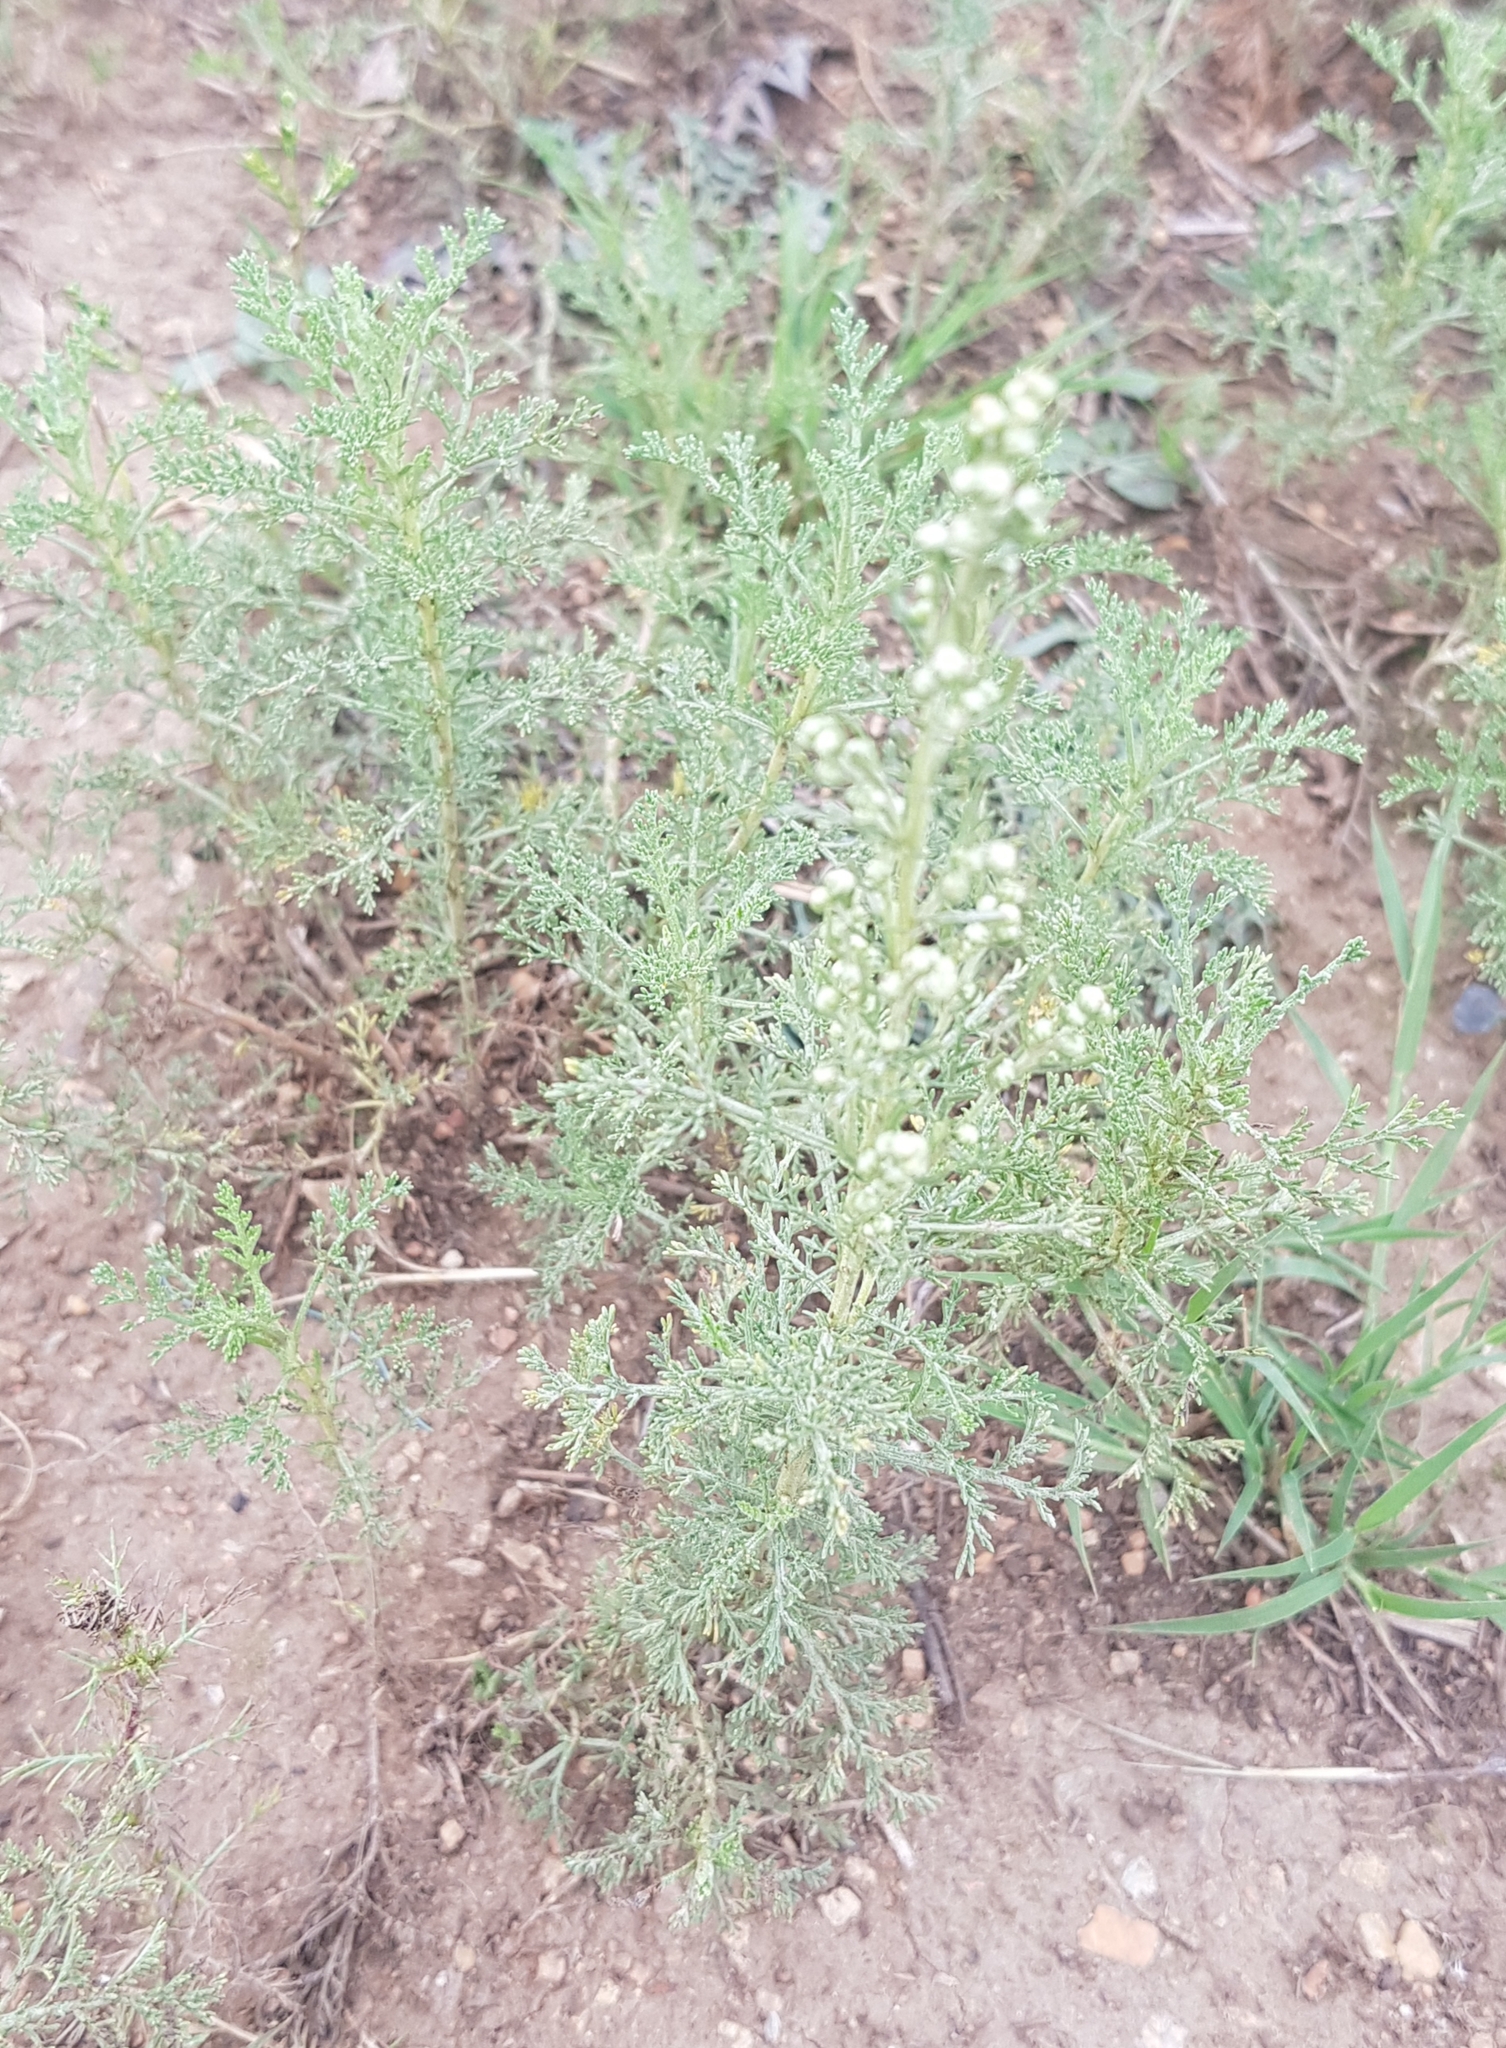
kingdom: Plantae
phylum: Tracheophyta
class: Magnoliopsida
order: Asterales
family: Asteraceae
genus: Artemisia
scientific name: Artemisia sieversiana
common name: Sieversian wormwood
